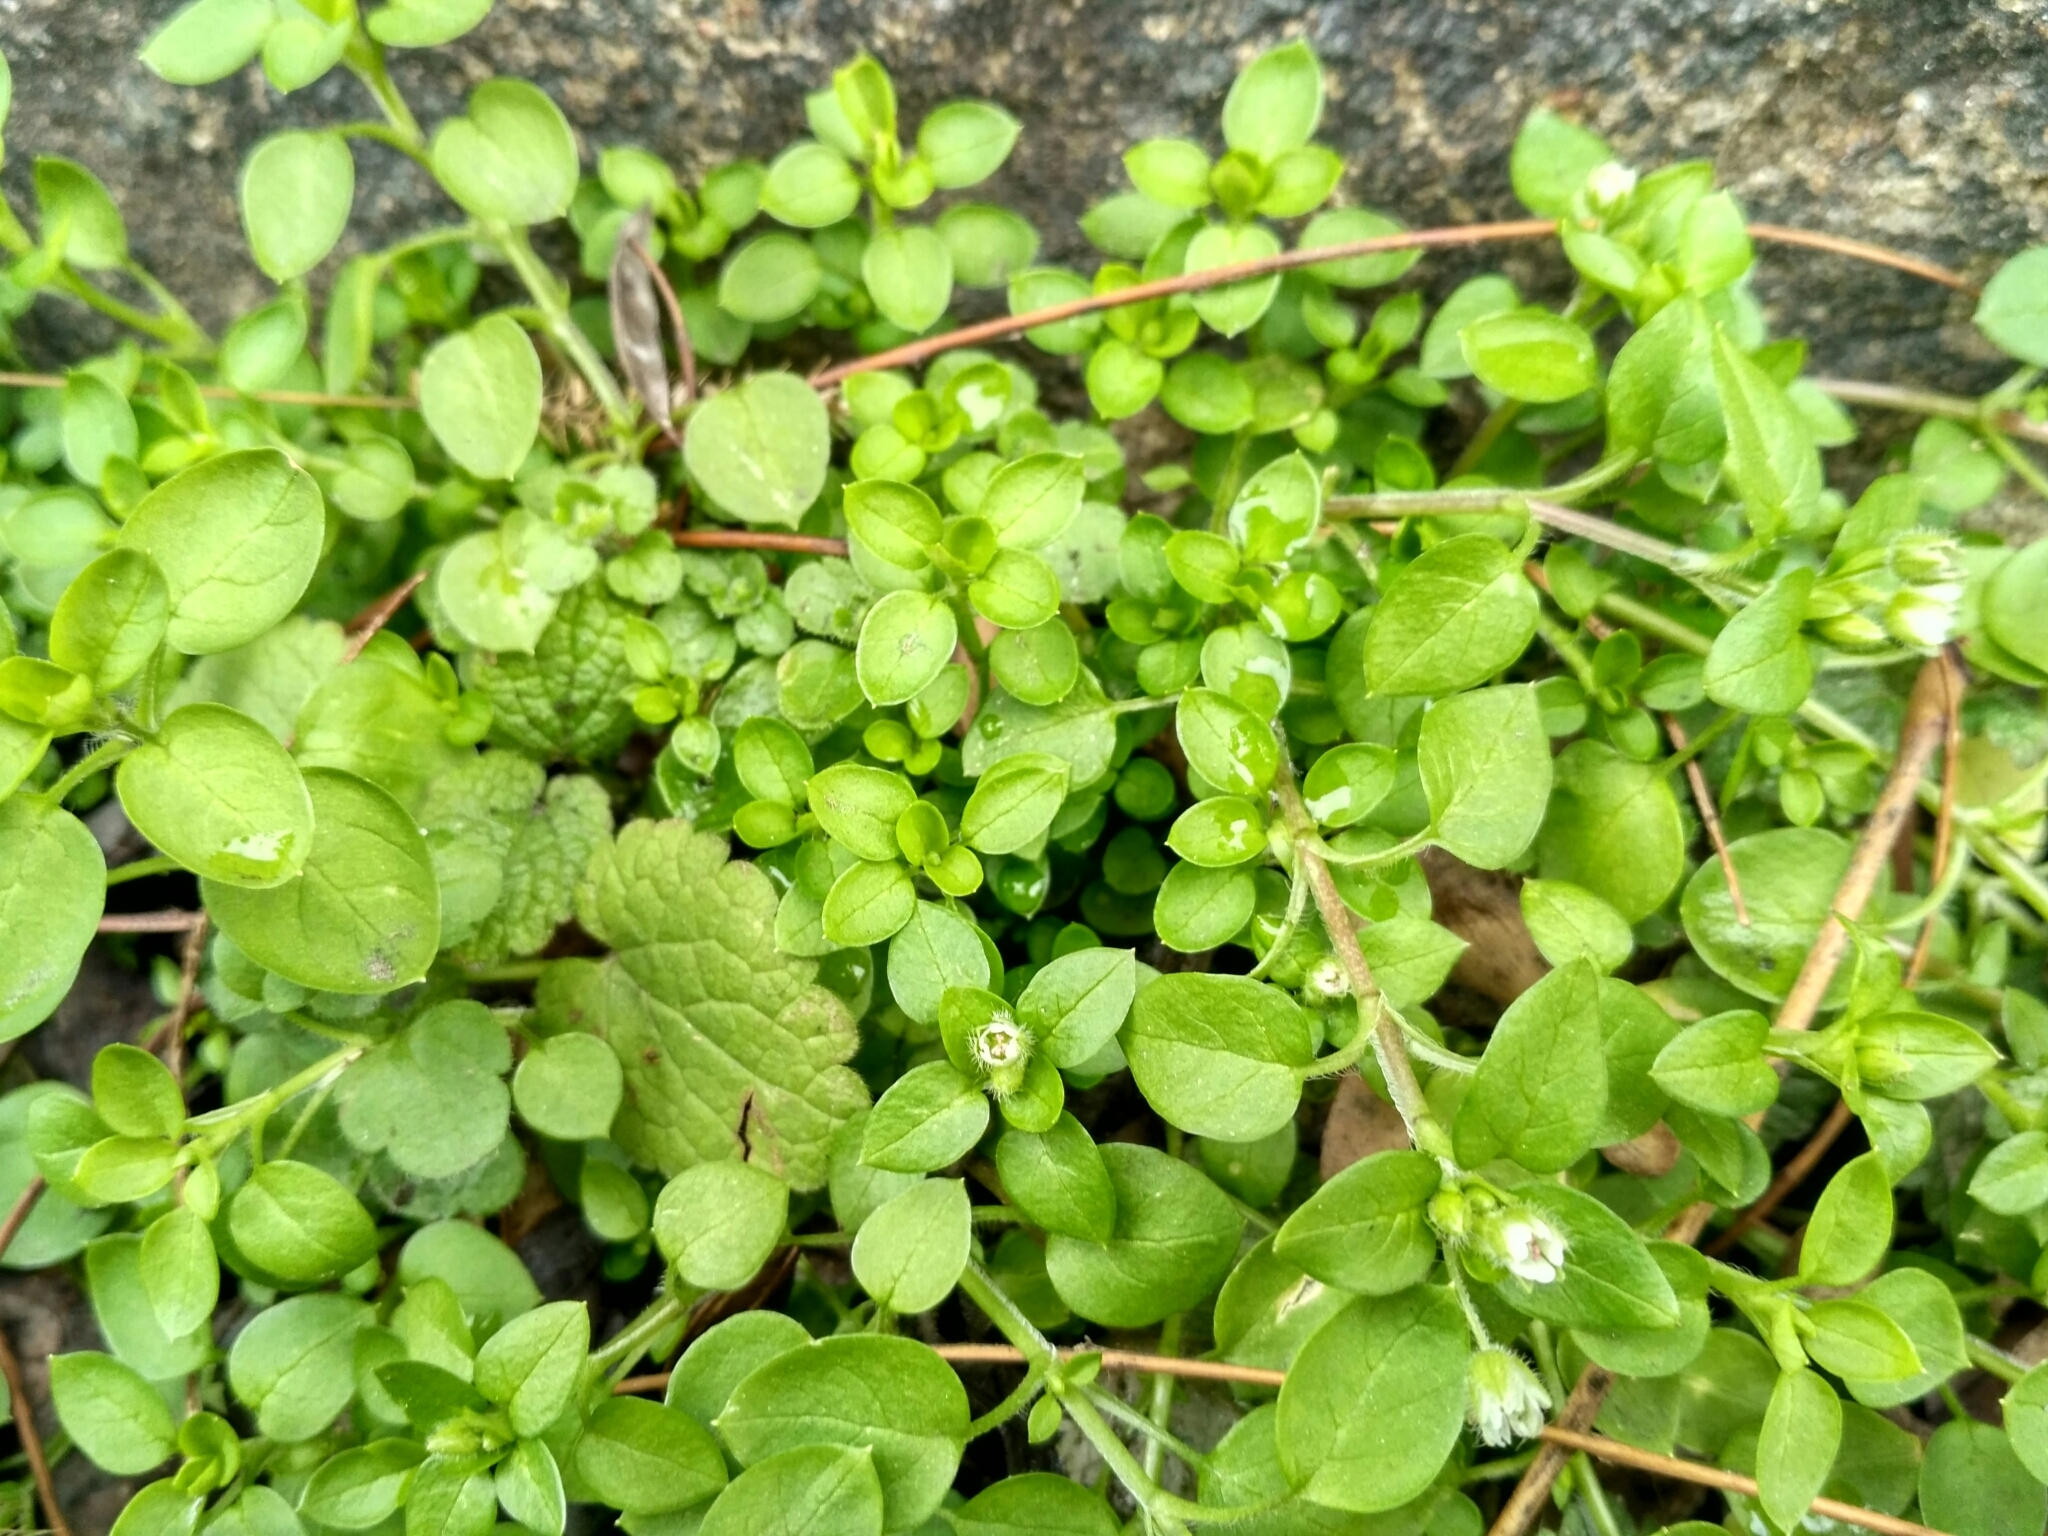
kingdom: Plantae
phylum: Tracheophyta
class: Magnoliopsida
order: Caryophyllales
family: Caryophyllaceae
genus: Stellaria
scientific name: Stellaria media
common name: Common chickweed
